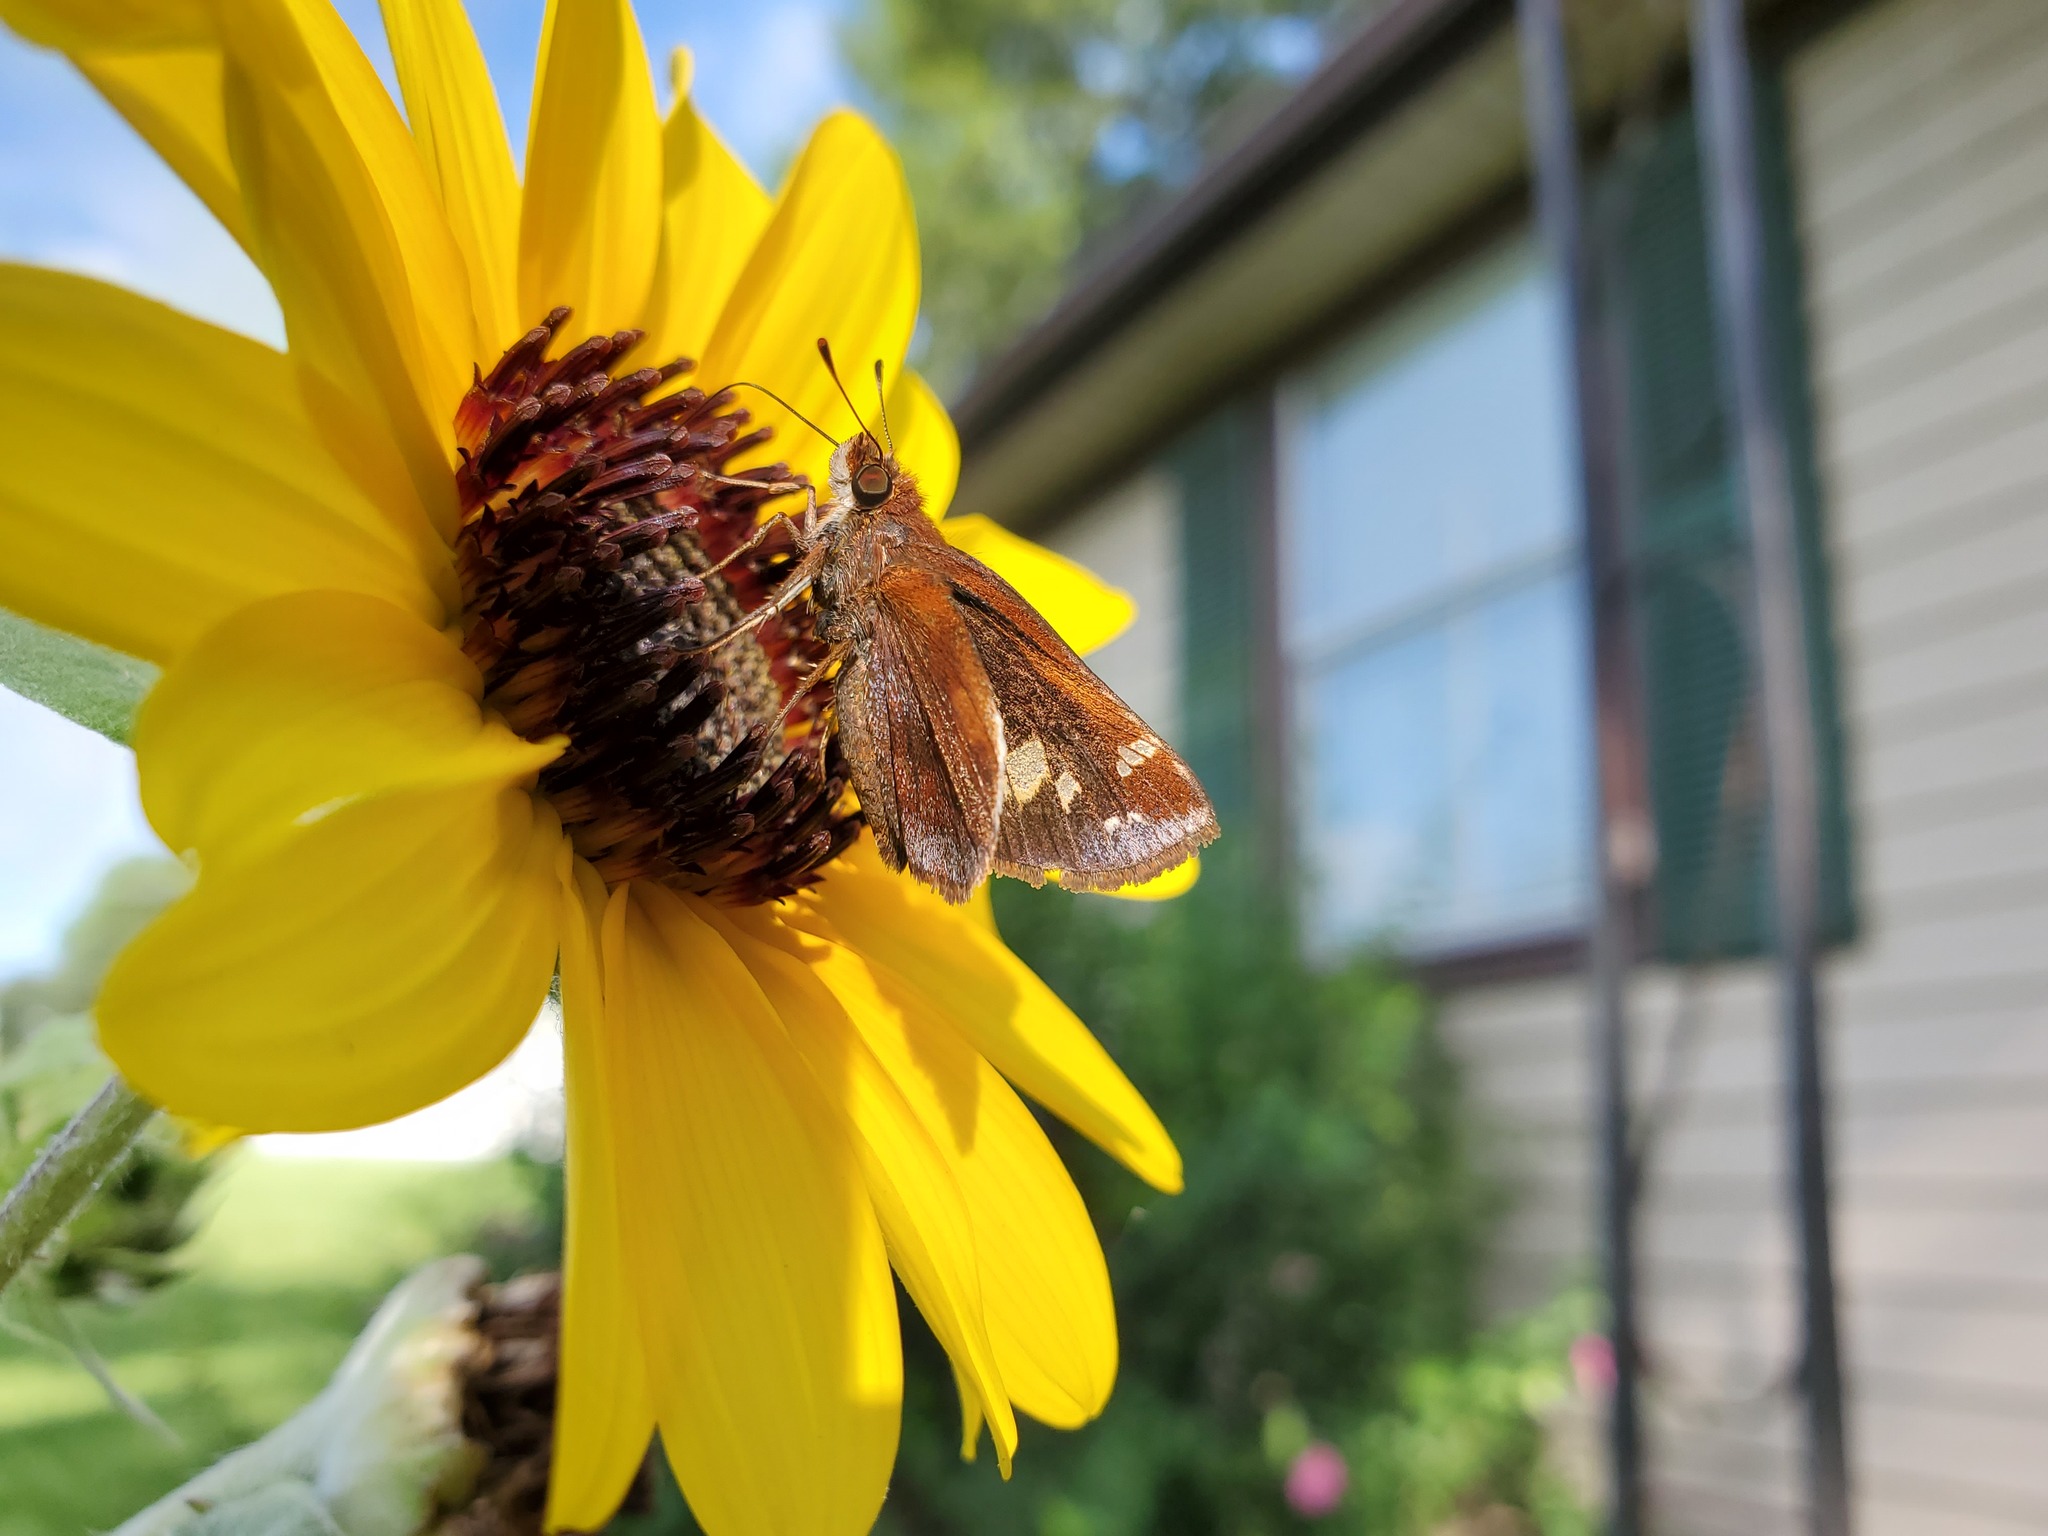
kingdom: Animalia
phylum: Arthropoda
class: Insecta
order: Lepidoptera
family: Hesperiidae
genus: Lon
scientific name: Lon zabulon
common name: Zabulon skipper
